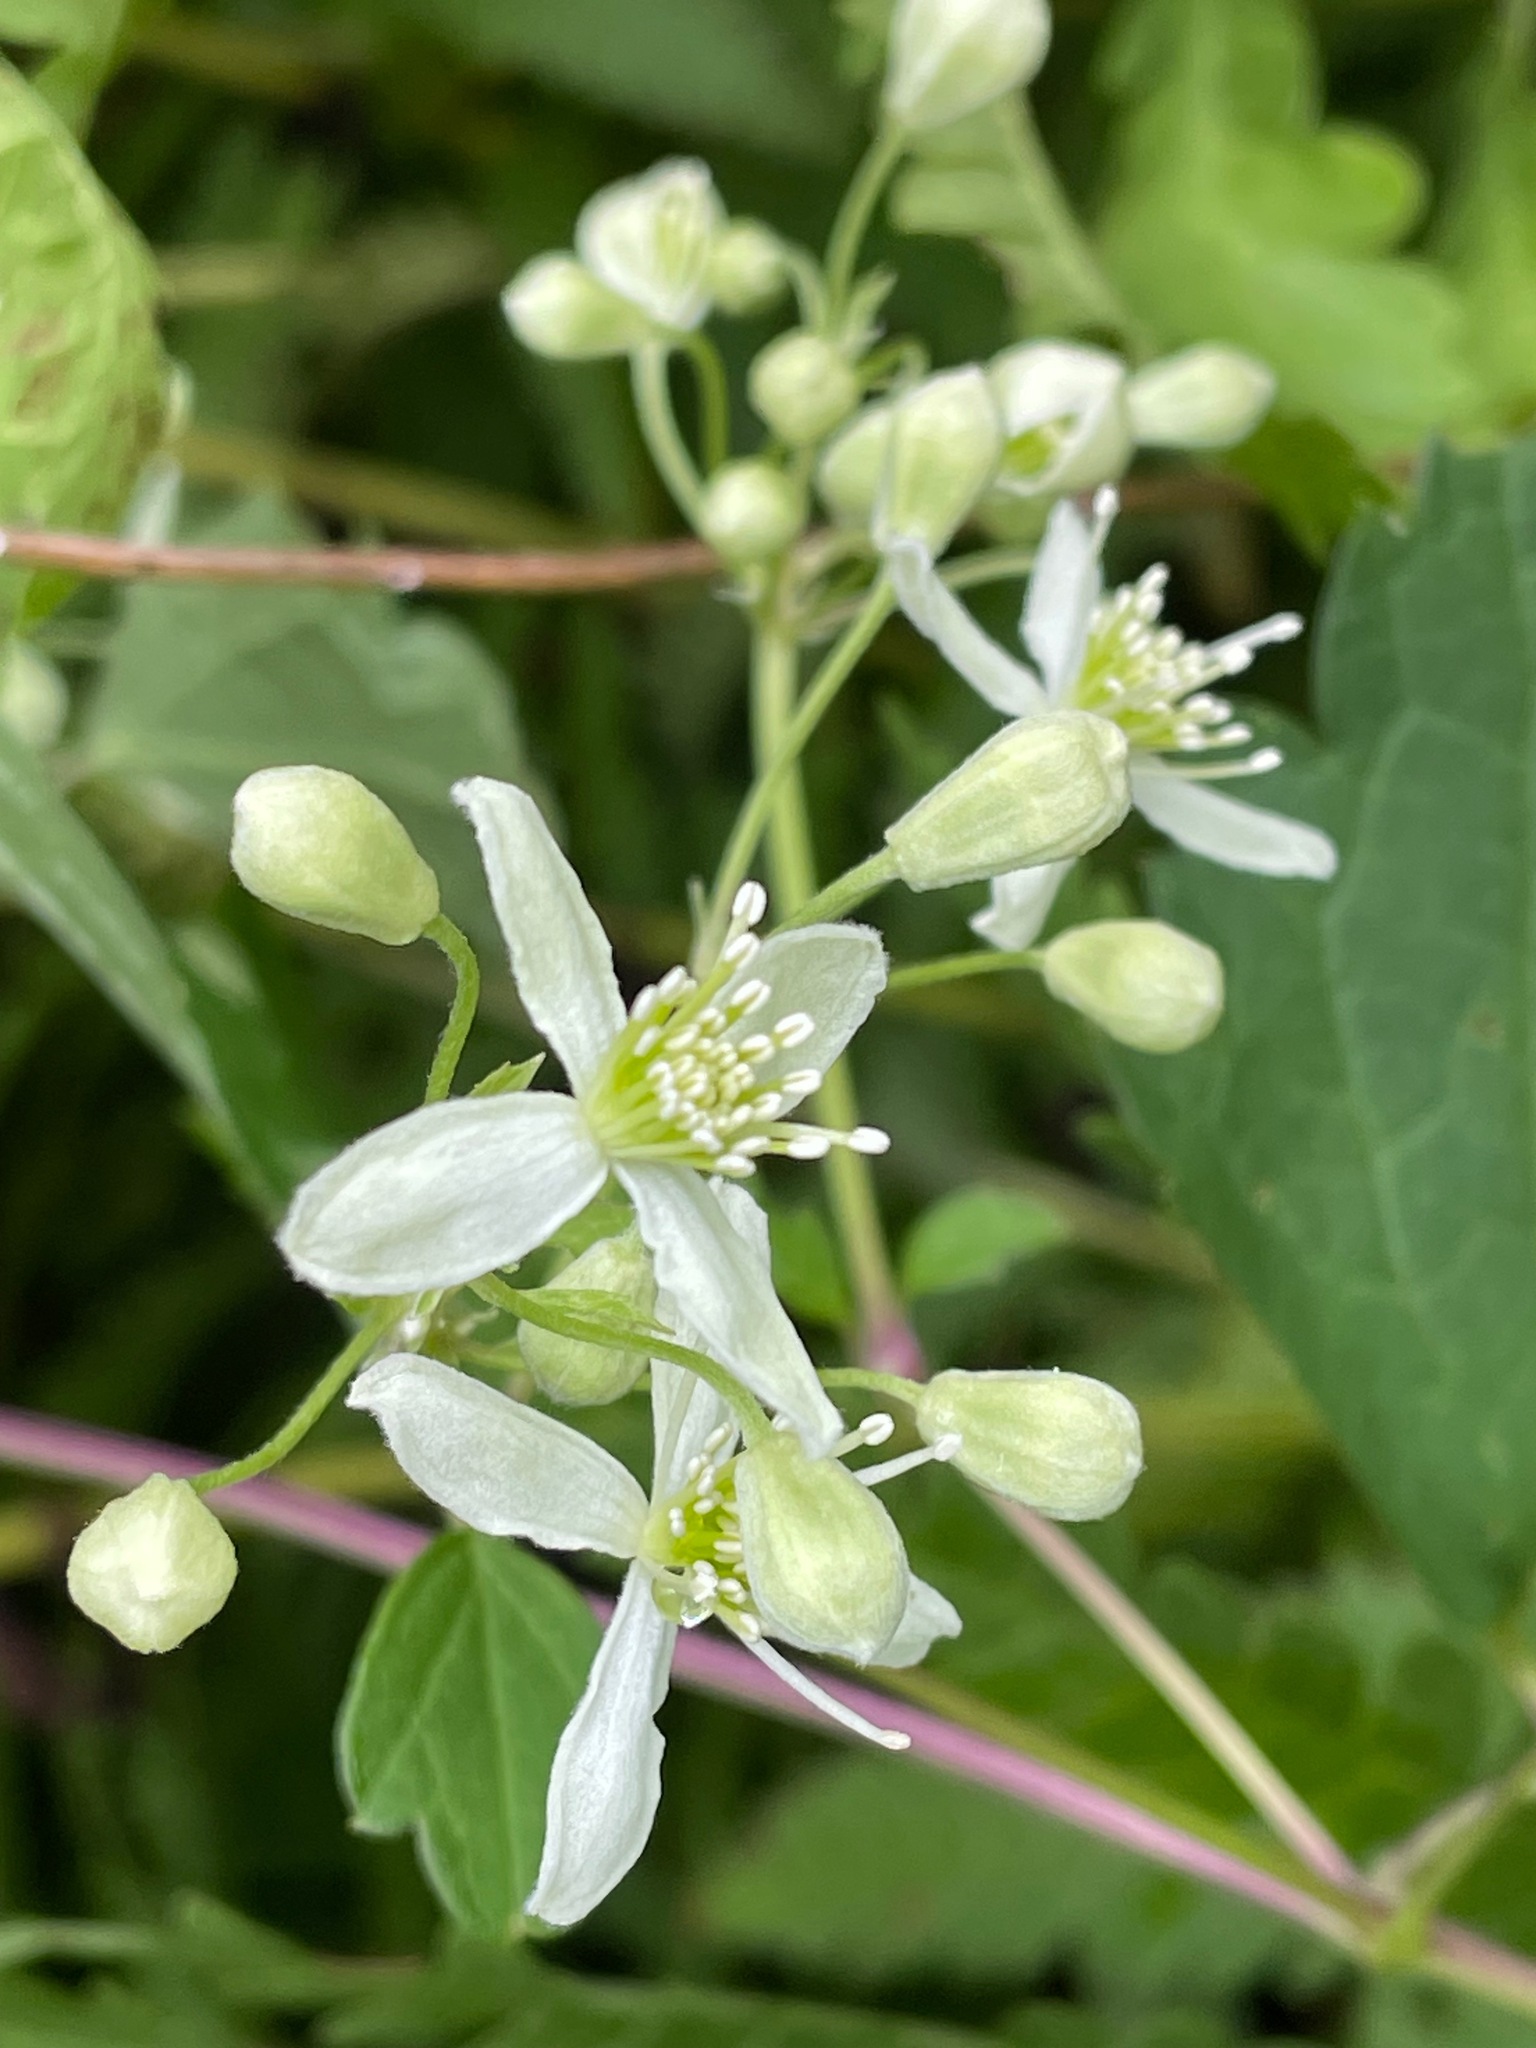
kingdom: Plantae
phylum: Tracheophyta
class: Magnoliopsida
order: Ranunculales
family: Ranunculaceae
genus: Clematis
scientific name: Clematis virginiana
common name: Virgin's-bower
